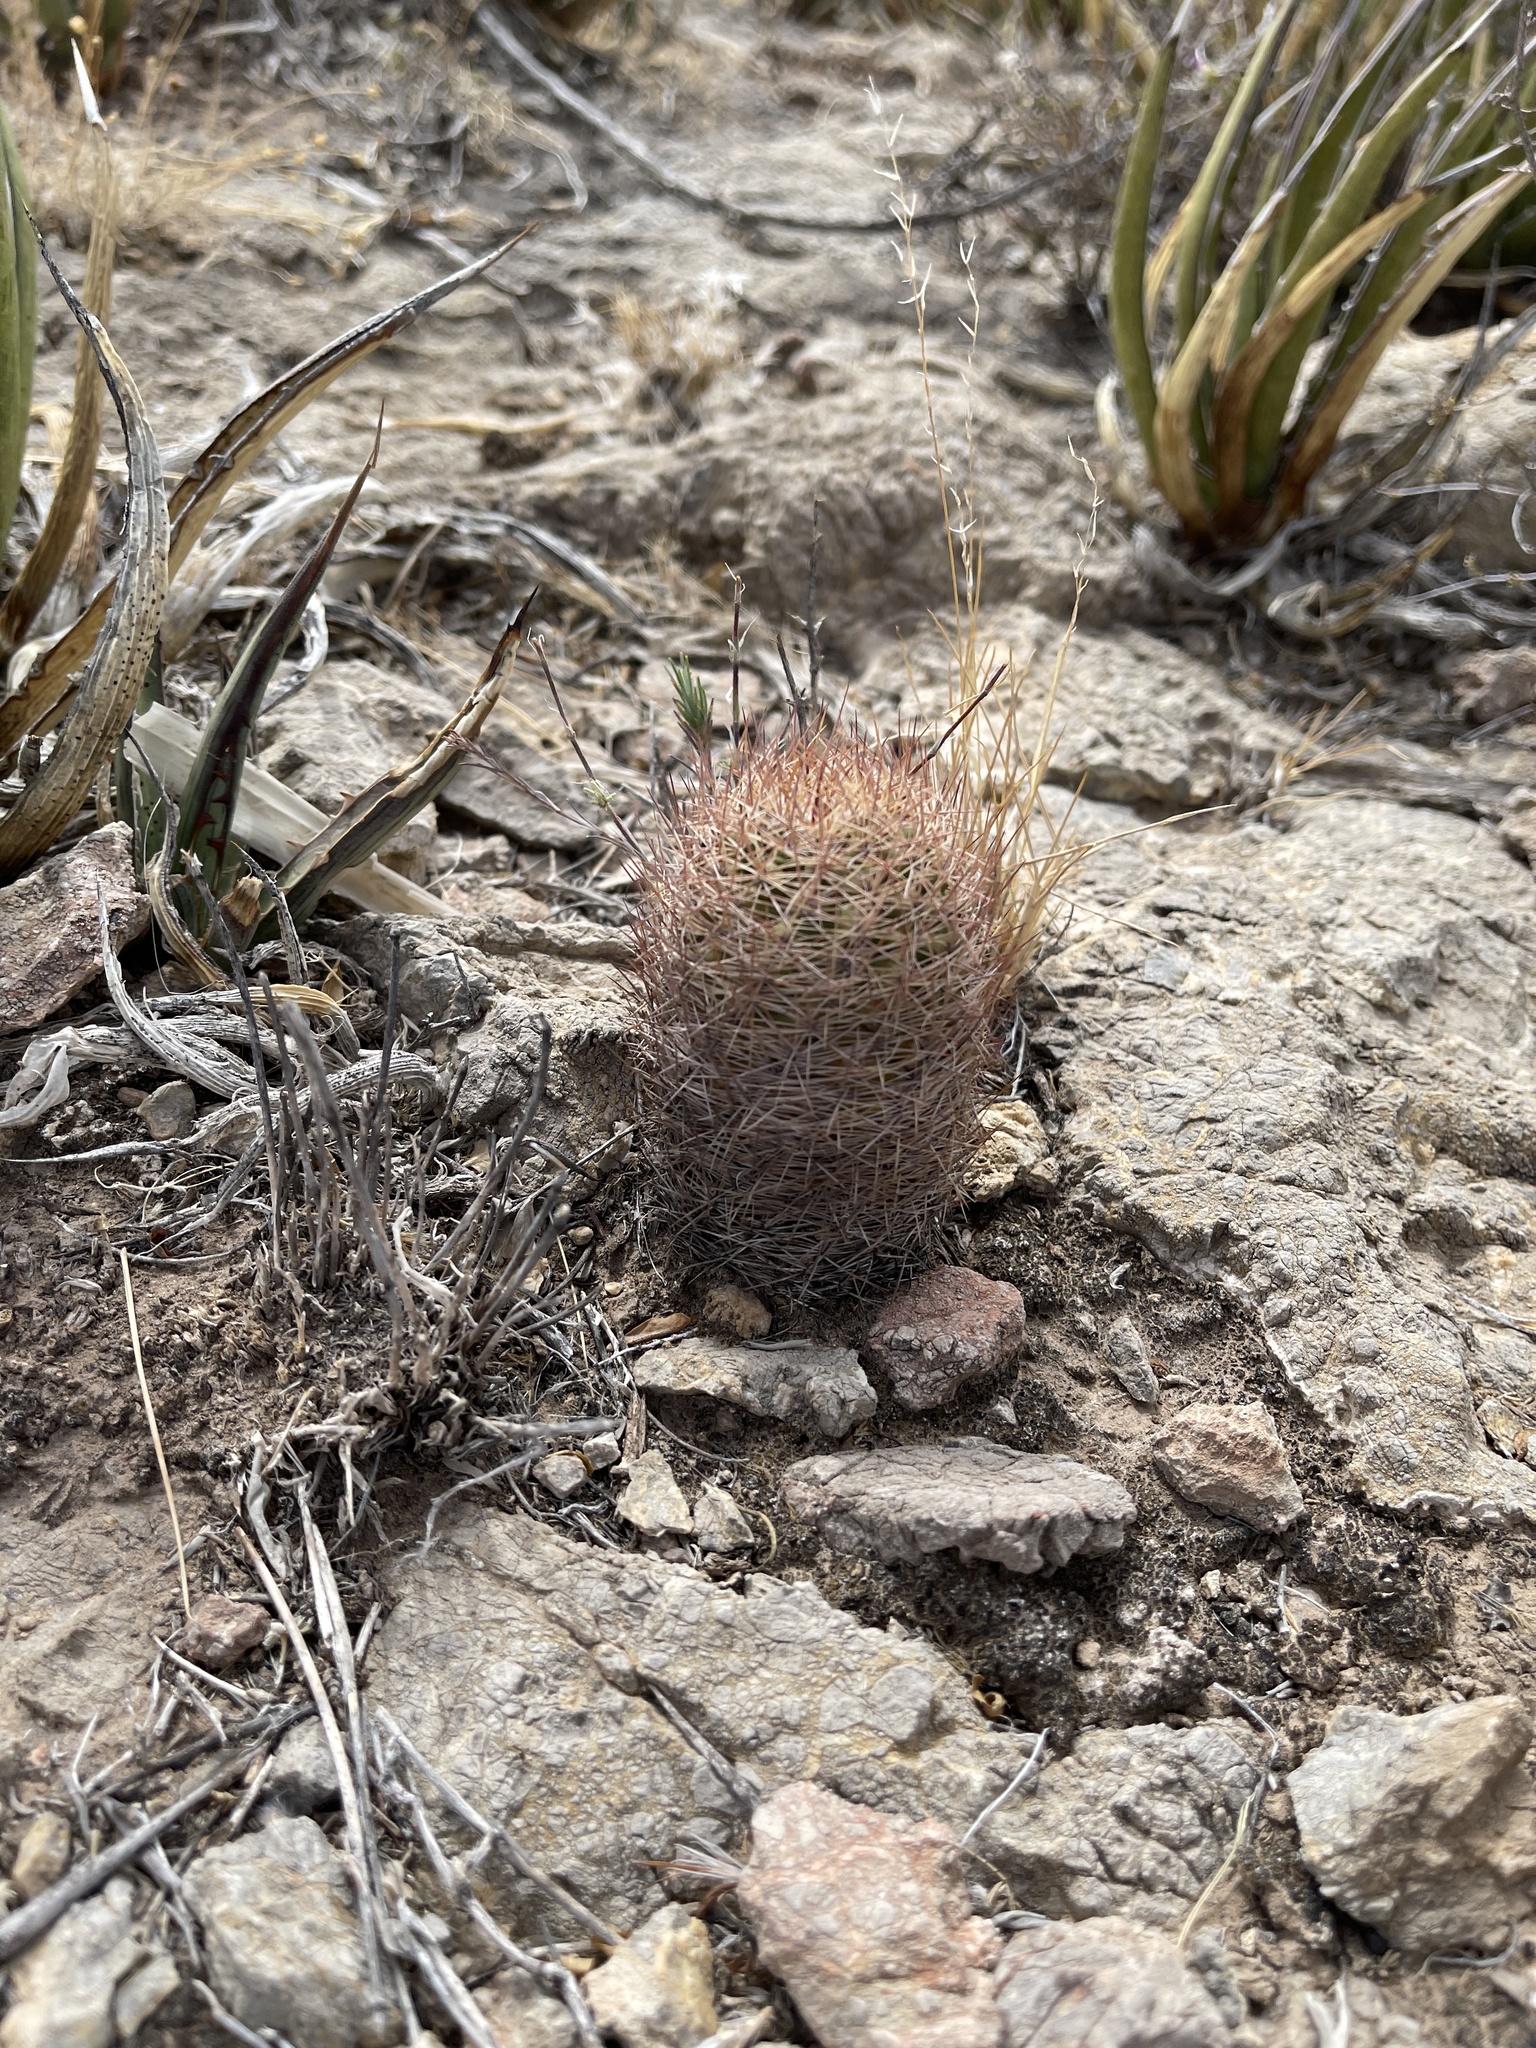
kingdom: Plantae
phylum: Tracheophyta
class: Magnoliopsida
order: Caryophyllales
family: Cactaceae
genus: Sclerocactus
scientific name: Sclerocactus intertextus
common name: White fish-hook cactus
